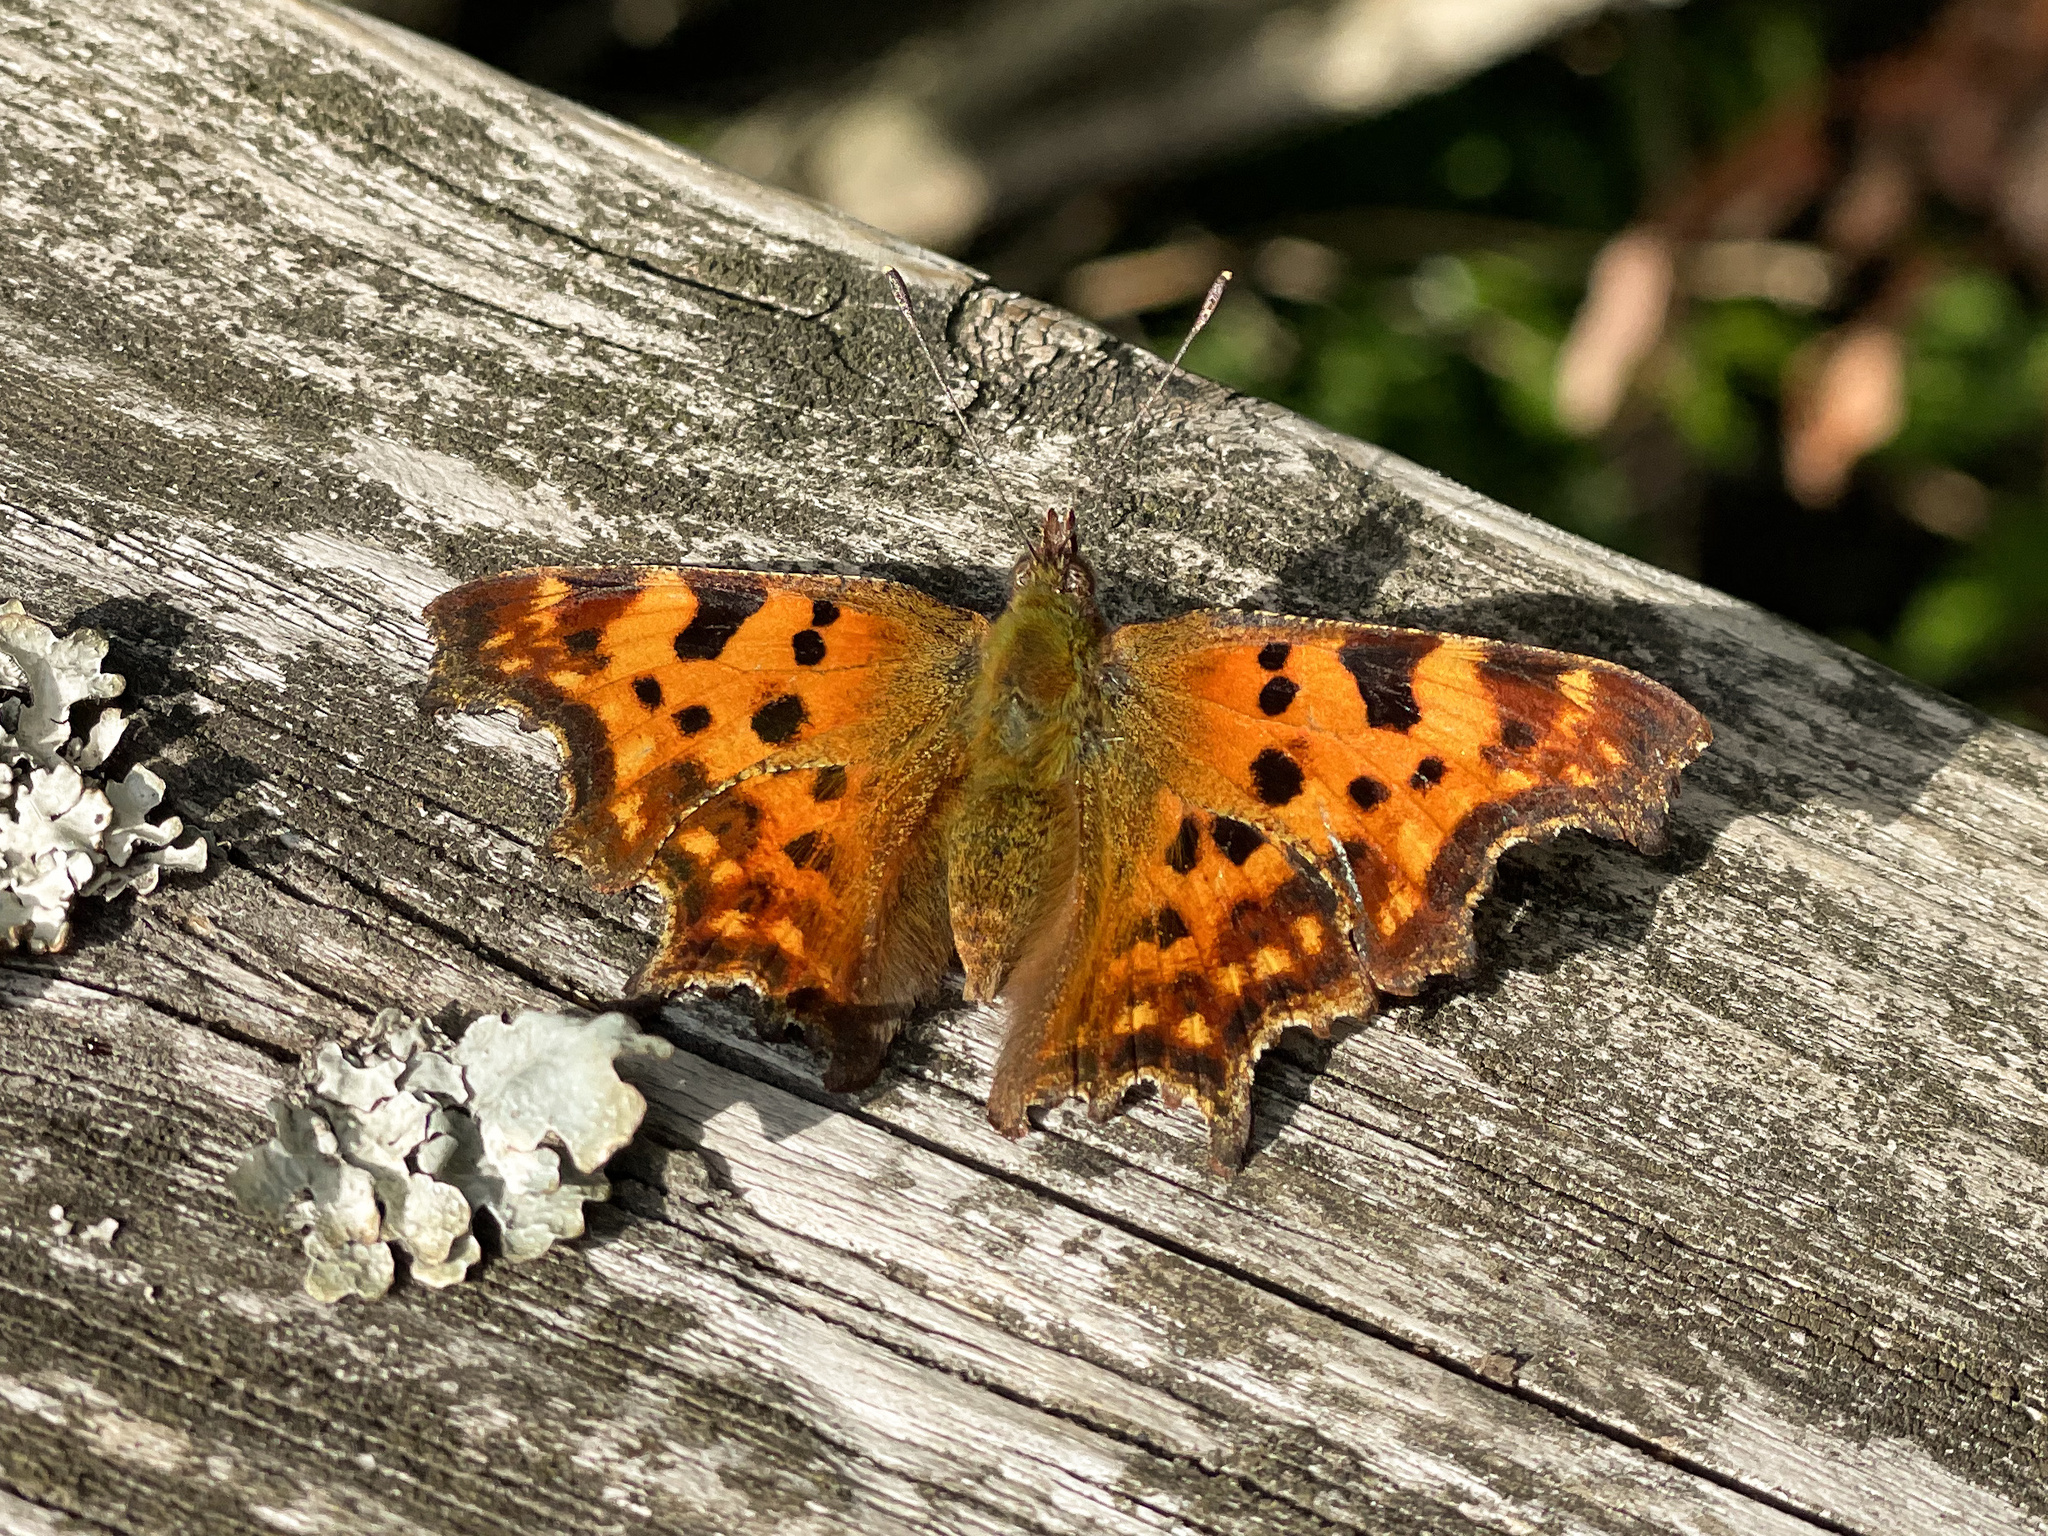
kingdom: Animalia
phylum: Arthropoda
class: Insecta
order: Lepidoptera
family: Nymphalidae
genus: Polygonia
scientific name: Polygonia c-album
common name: Comma
